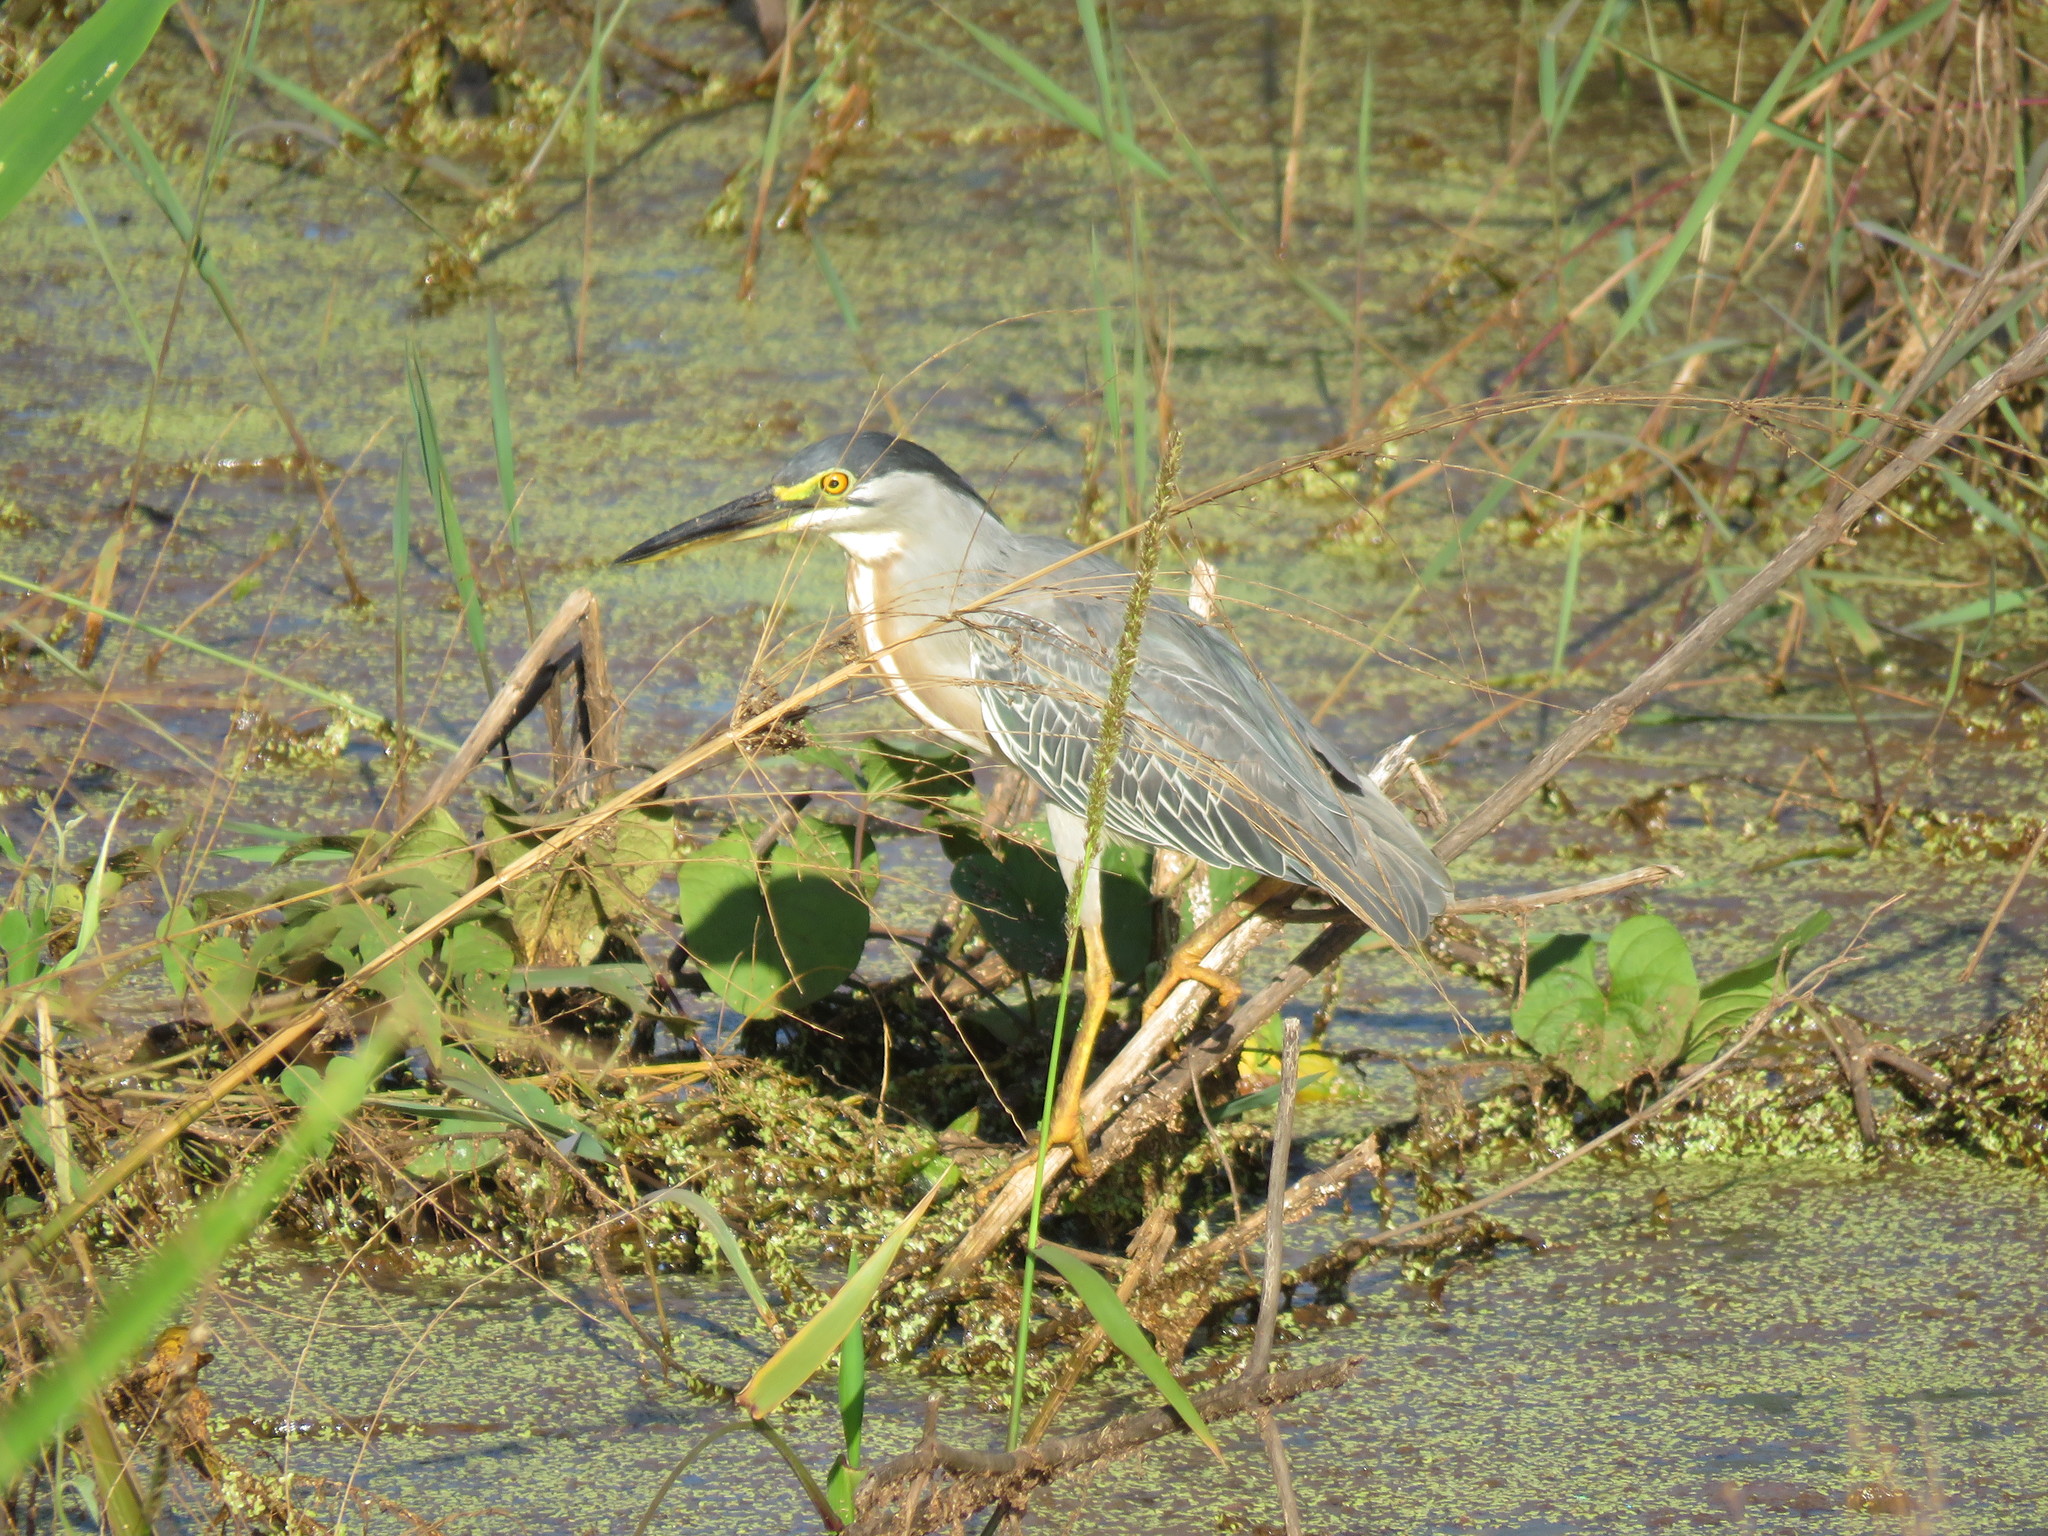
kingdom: Animalia
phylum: Chordata
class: Aves
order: Pelecaniformes
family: Ardeidae
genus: Butorides
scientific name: Butorides striata
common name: Striated heron
